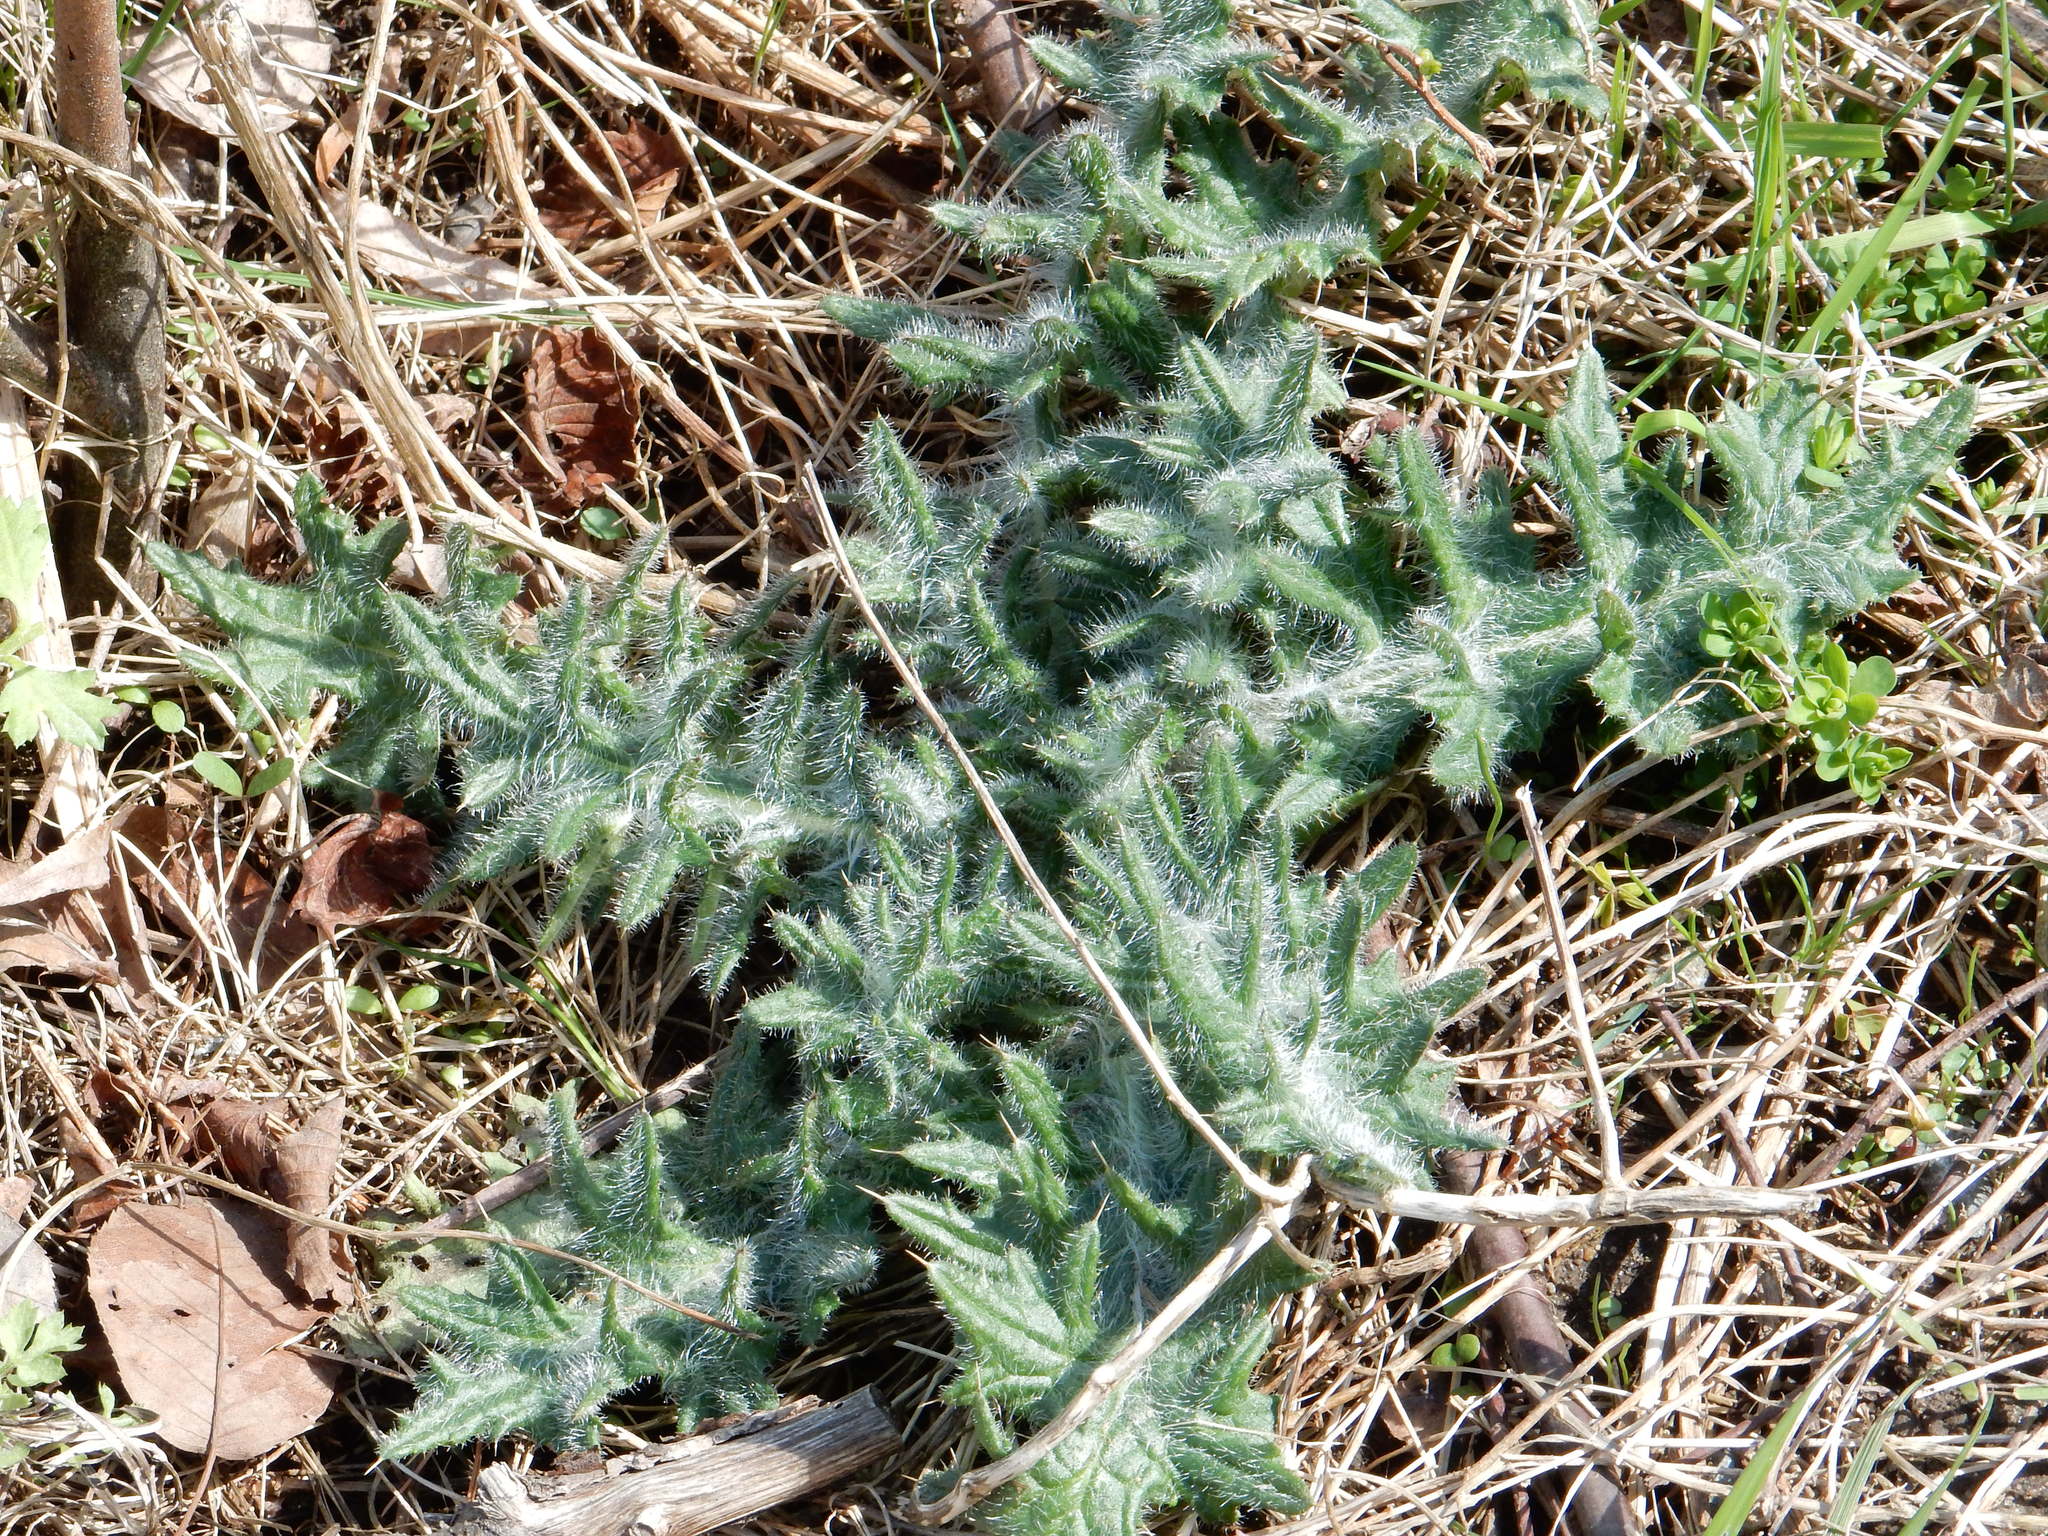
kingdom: Plantae
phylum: Tracheophyta
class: Magnoliopsida
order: Asterales
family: Asteraceae
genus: Cirsium
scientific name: Cirsium vulgare
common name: Bull thistle
